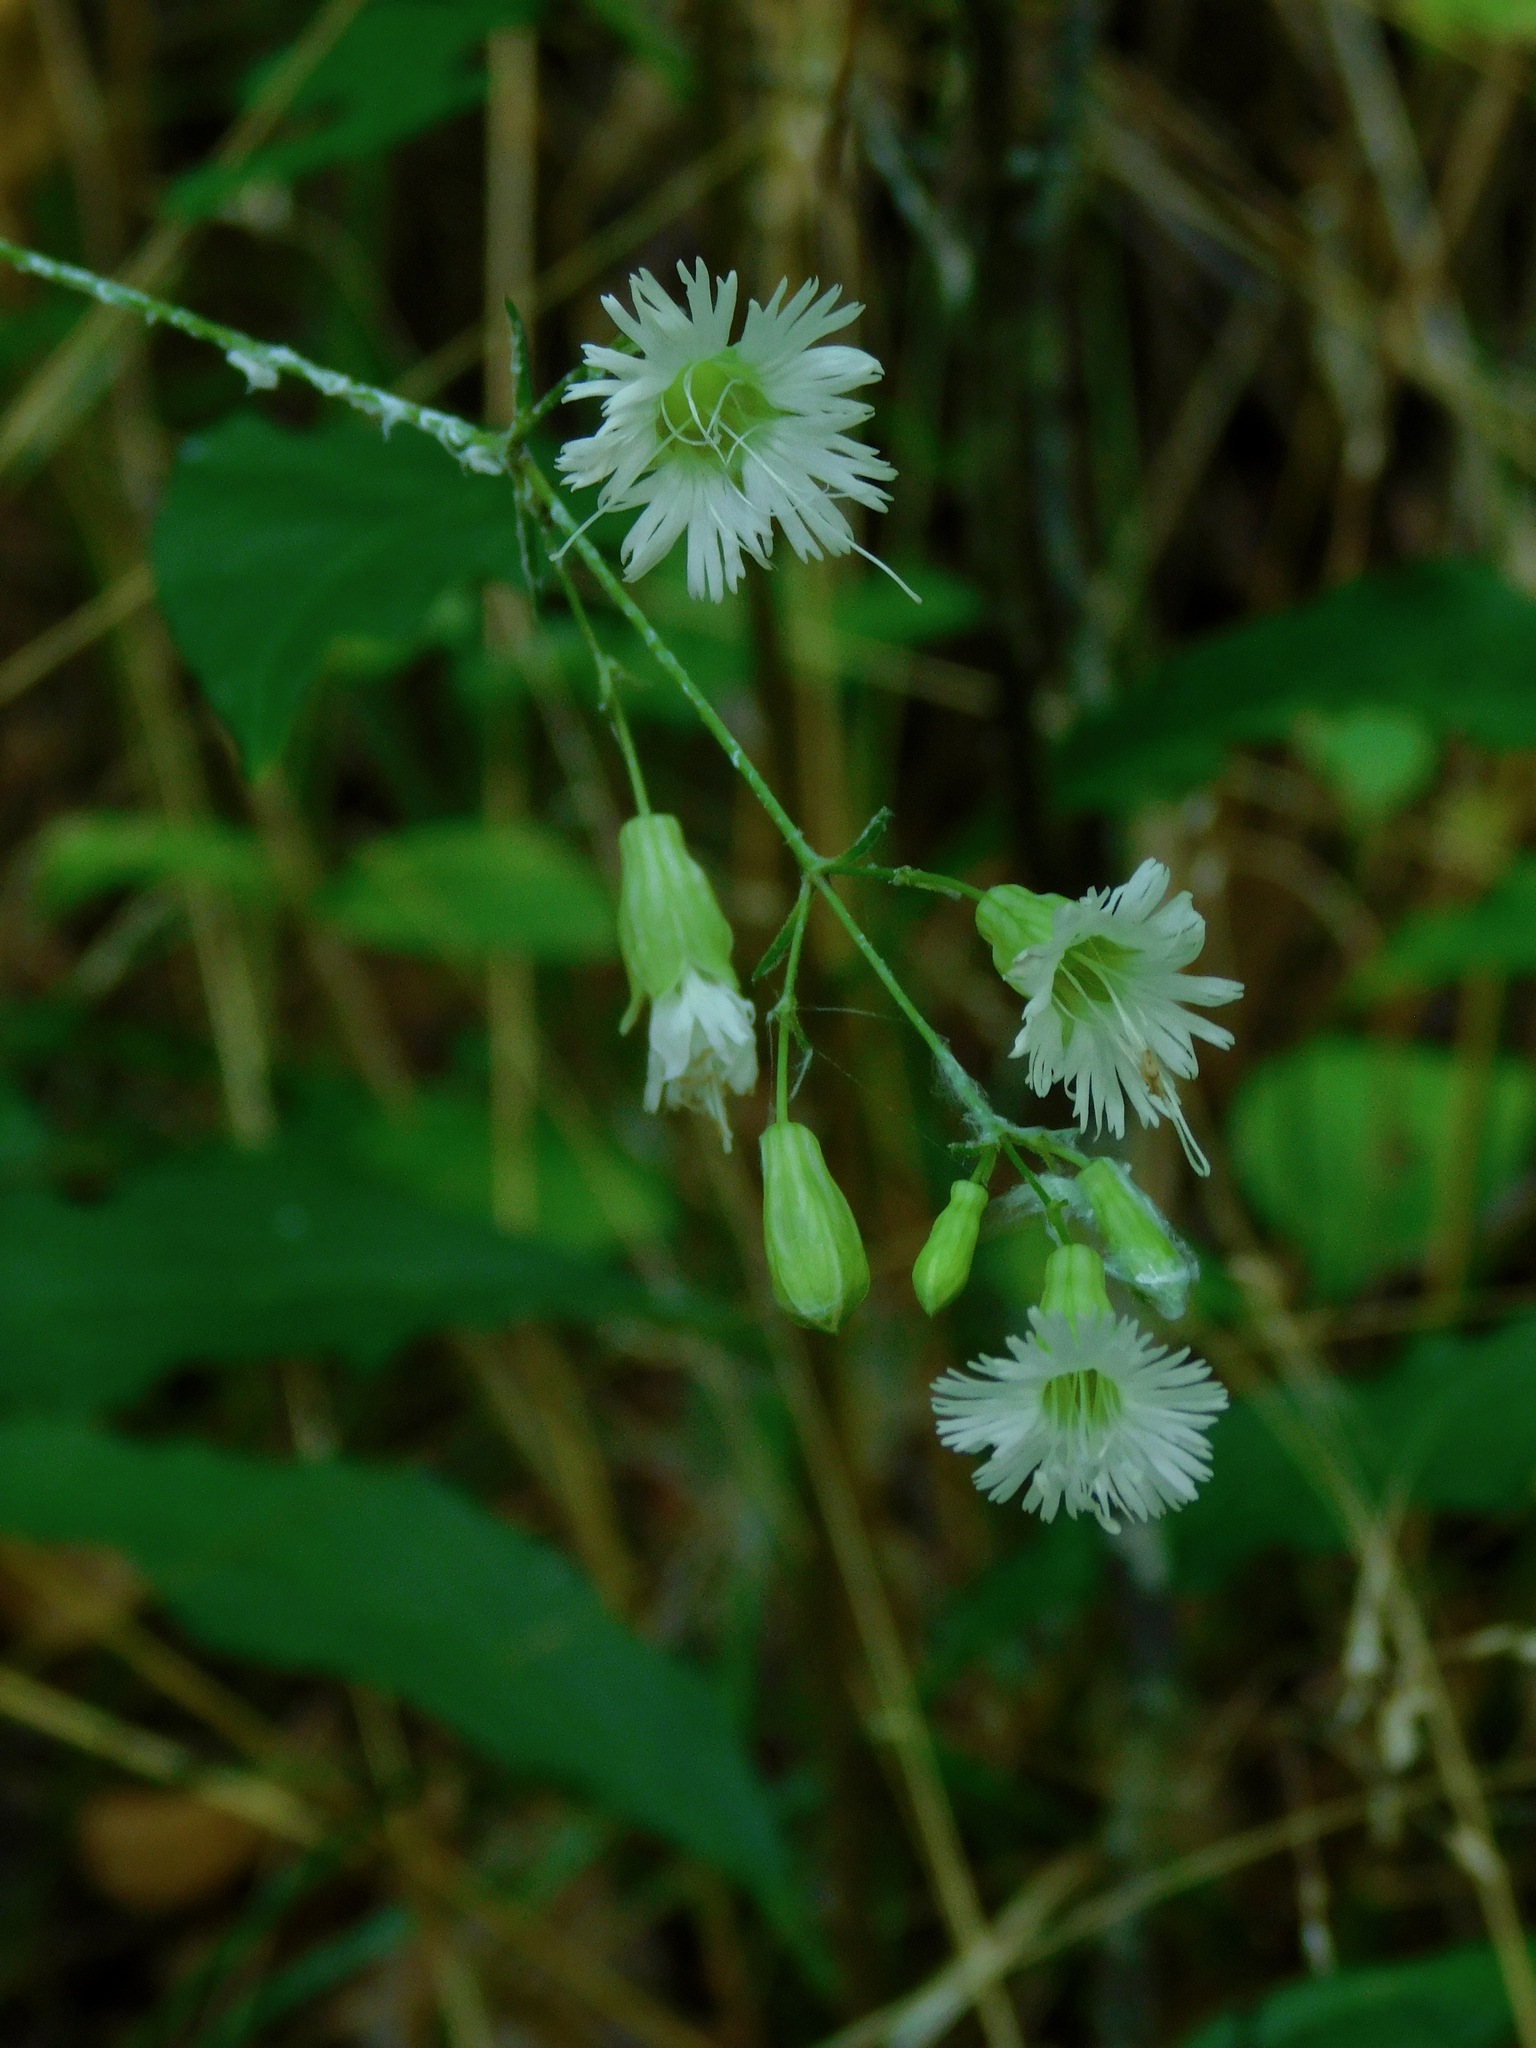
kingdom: Plantae
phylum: Tracheophyta
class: Magnoliopsida
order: Caryophyllales
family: Caryophyllaceae
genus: Silene
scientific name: Silene stellata
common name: Starry campion
